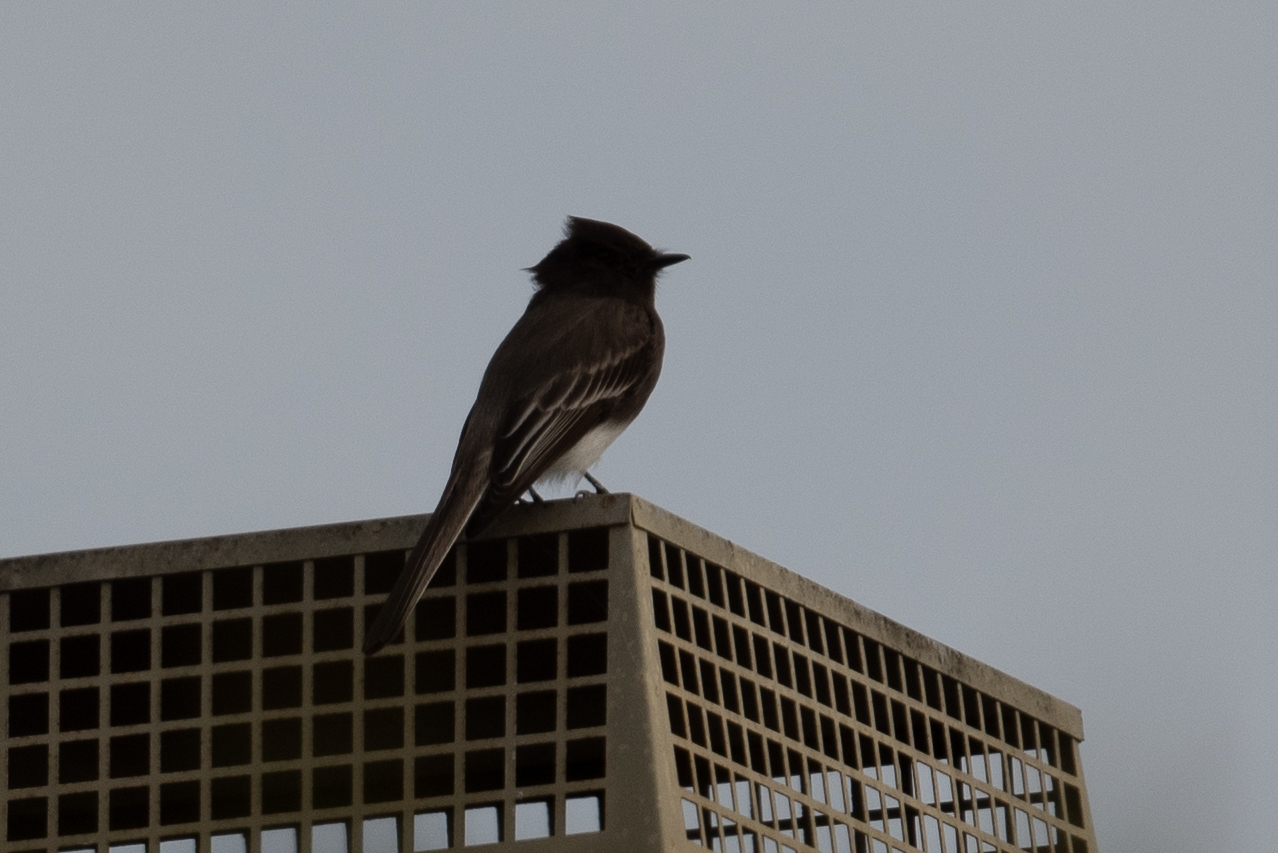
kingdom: Animalia
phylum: Chordata
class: Aves
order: Passeriformes
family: Tyrannidae
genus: Sayornis
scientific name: Sayornis nigricans
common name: Black phoebe
